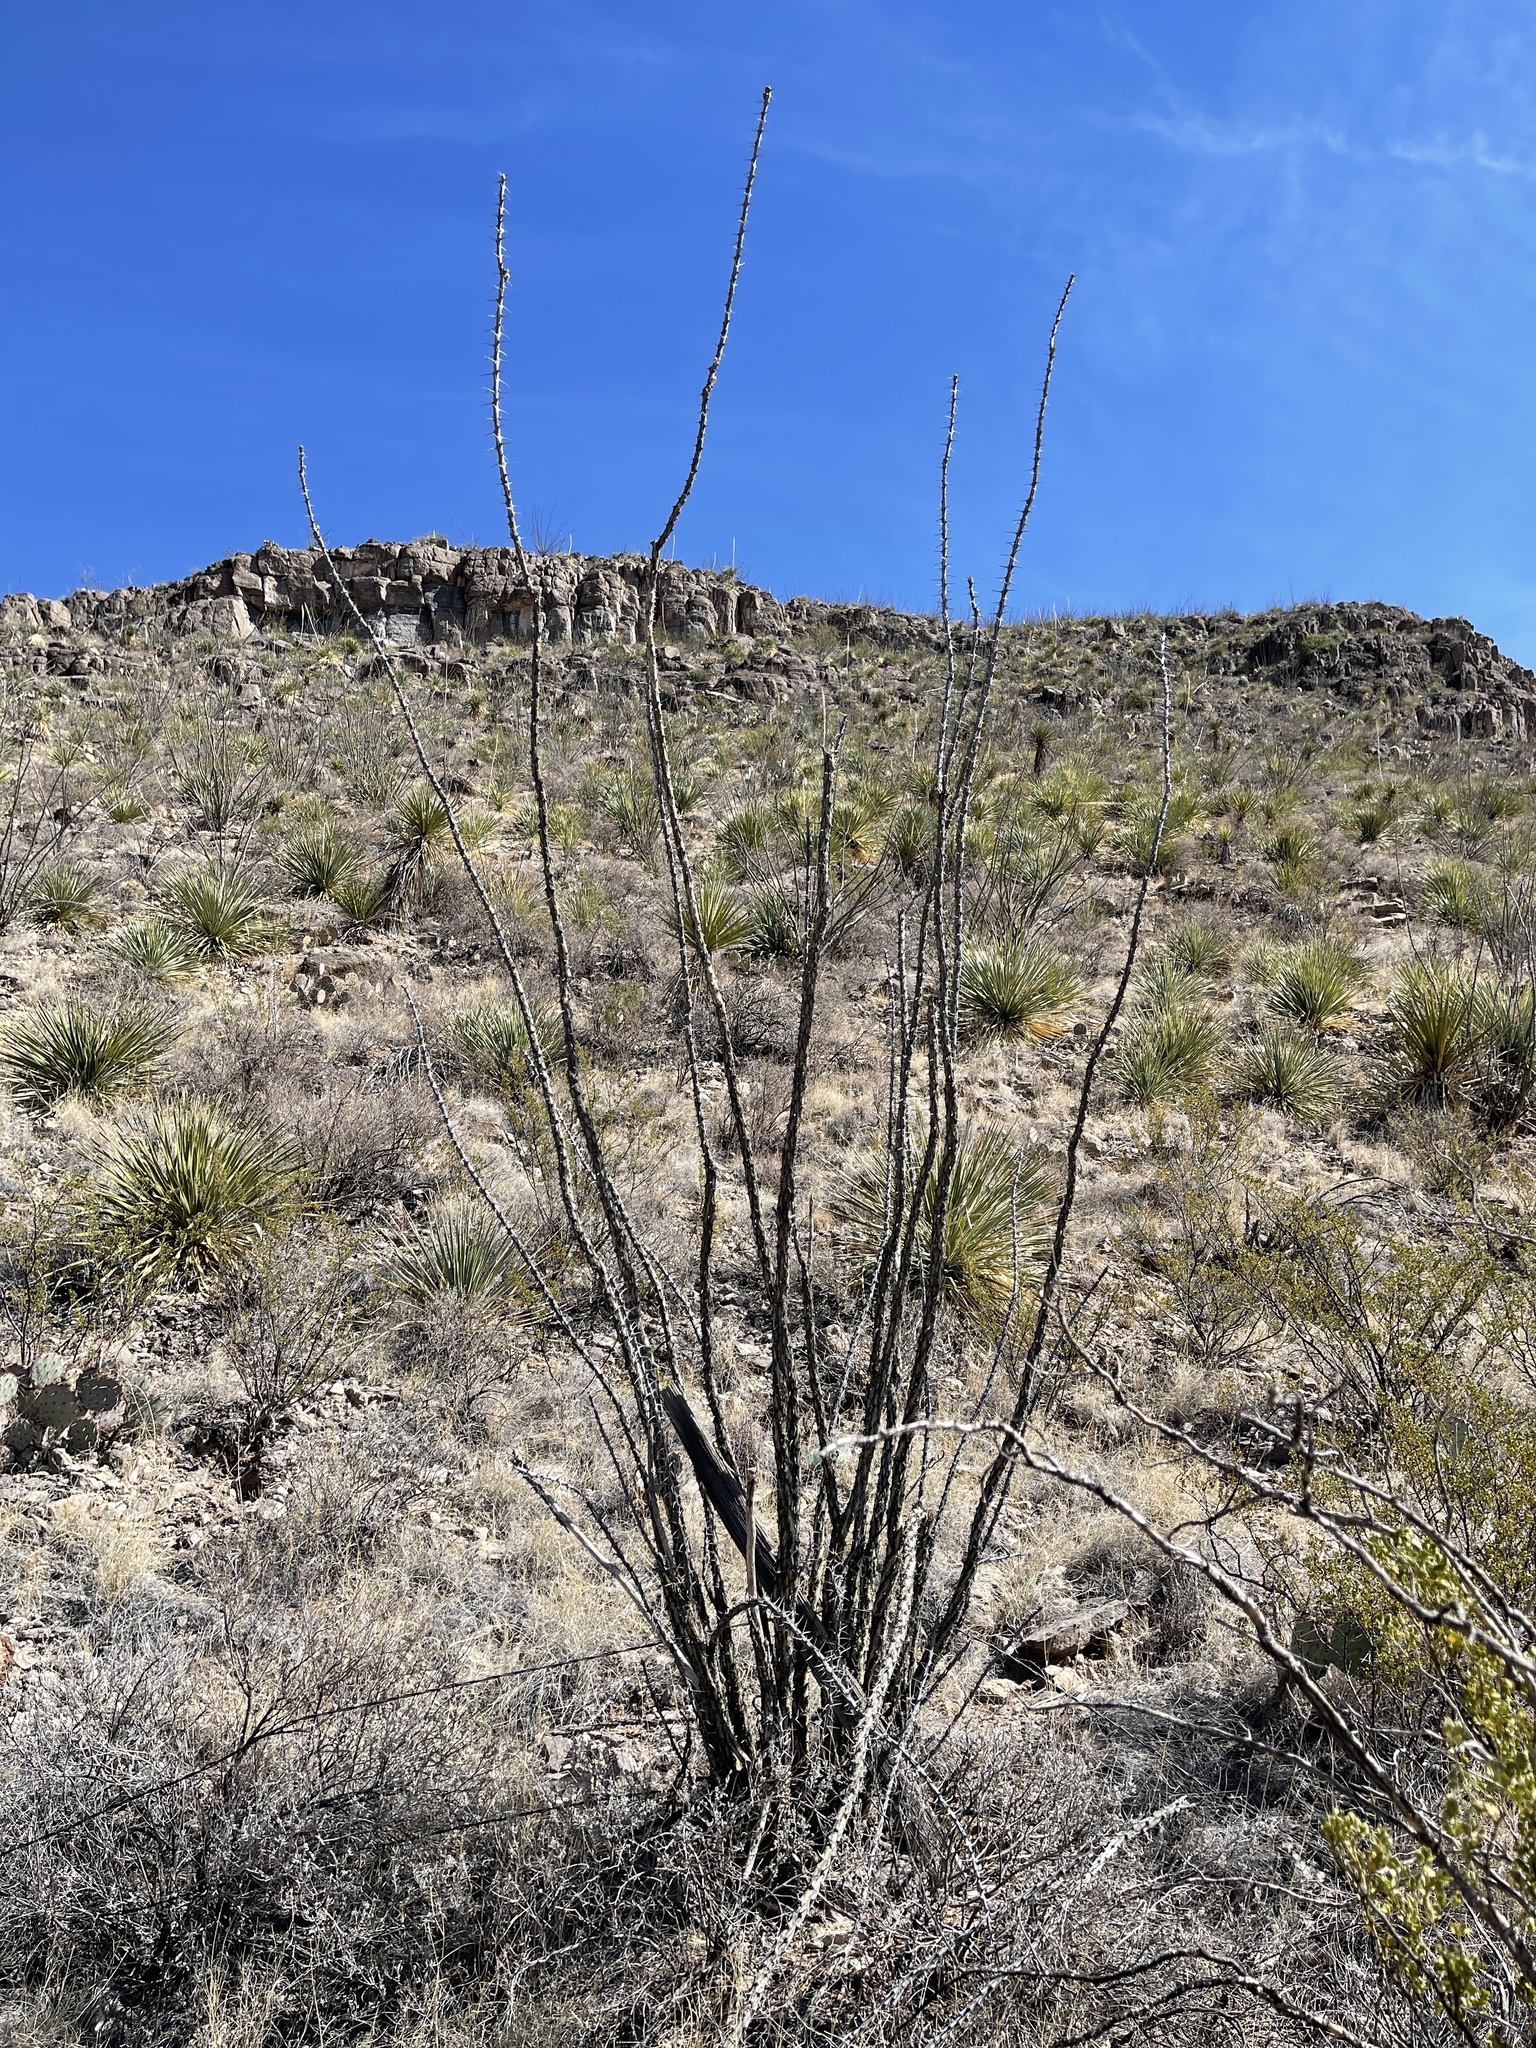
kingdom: Plantae
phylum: Tracheophyta
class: Magnoliopsida
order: Ericales
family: Fouquieriaceae
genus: Fouquieria
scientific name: Fouquieria splendens
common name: Vine-cactus
